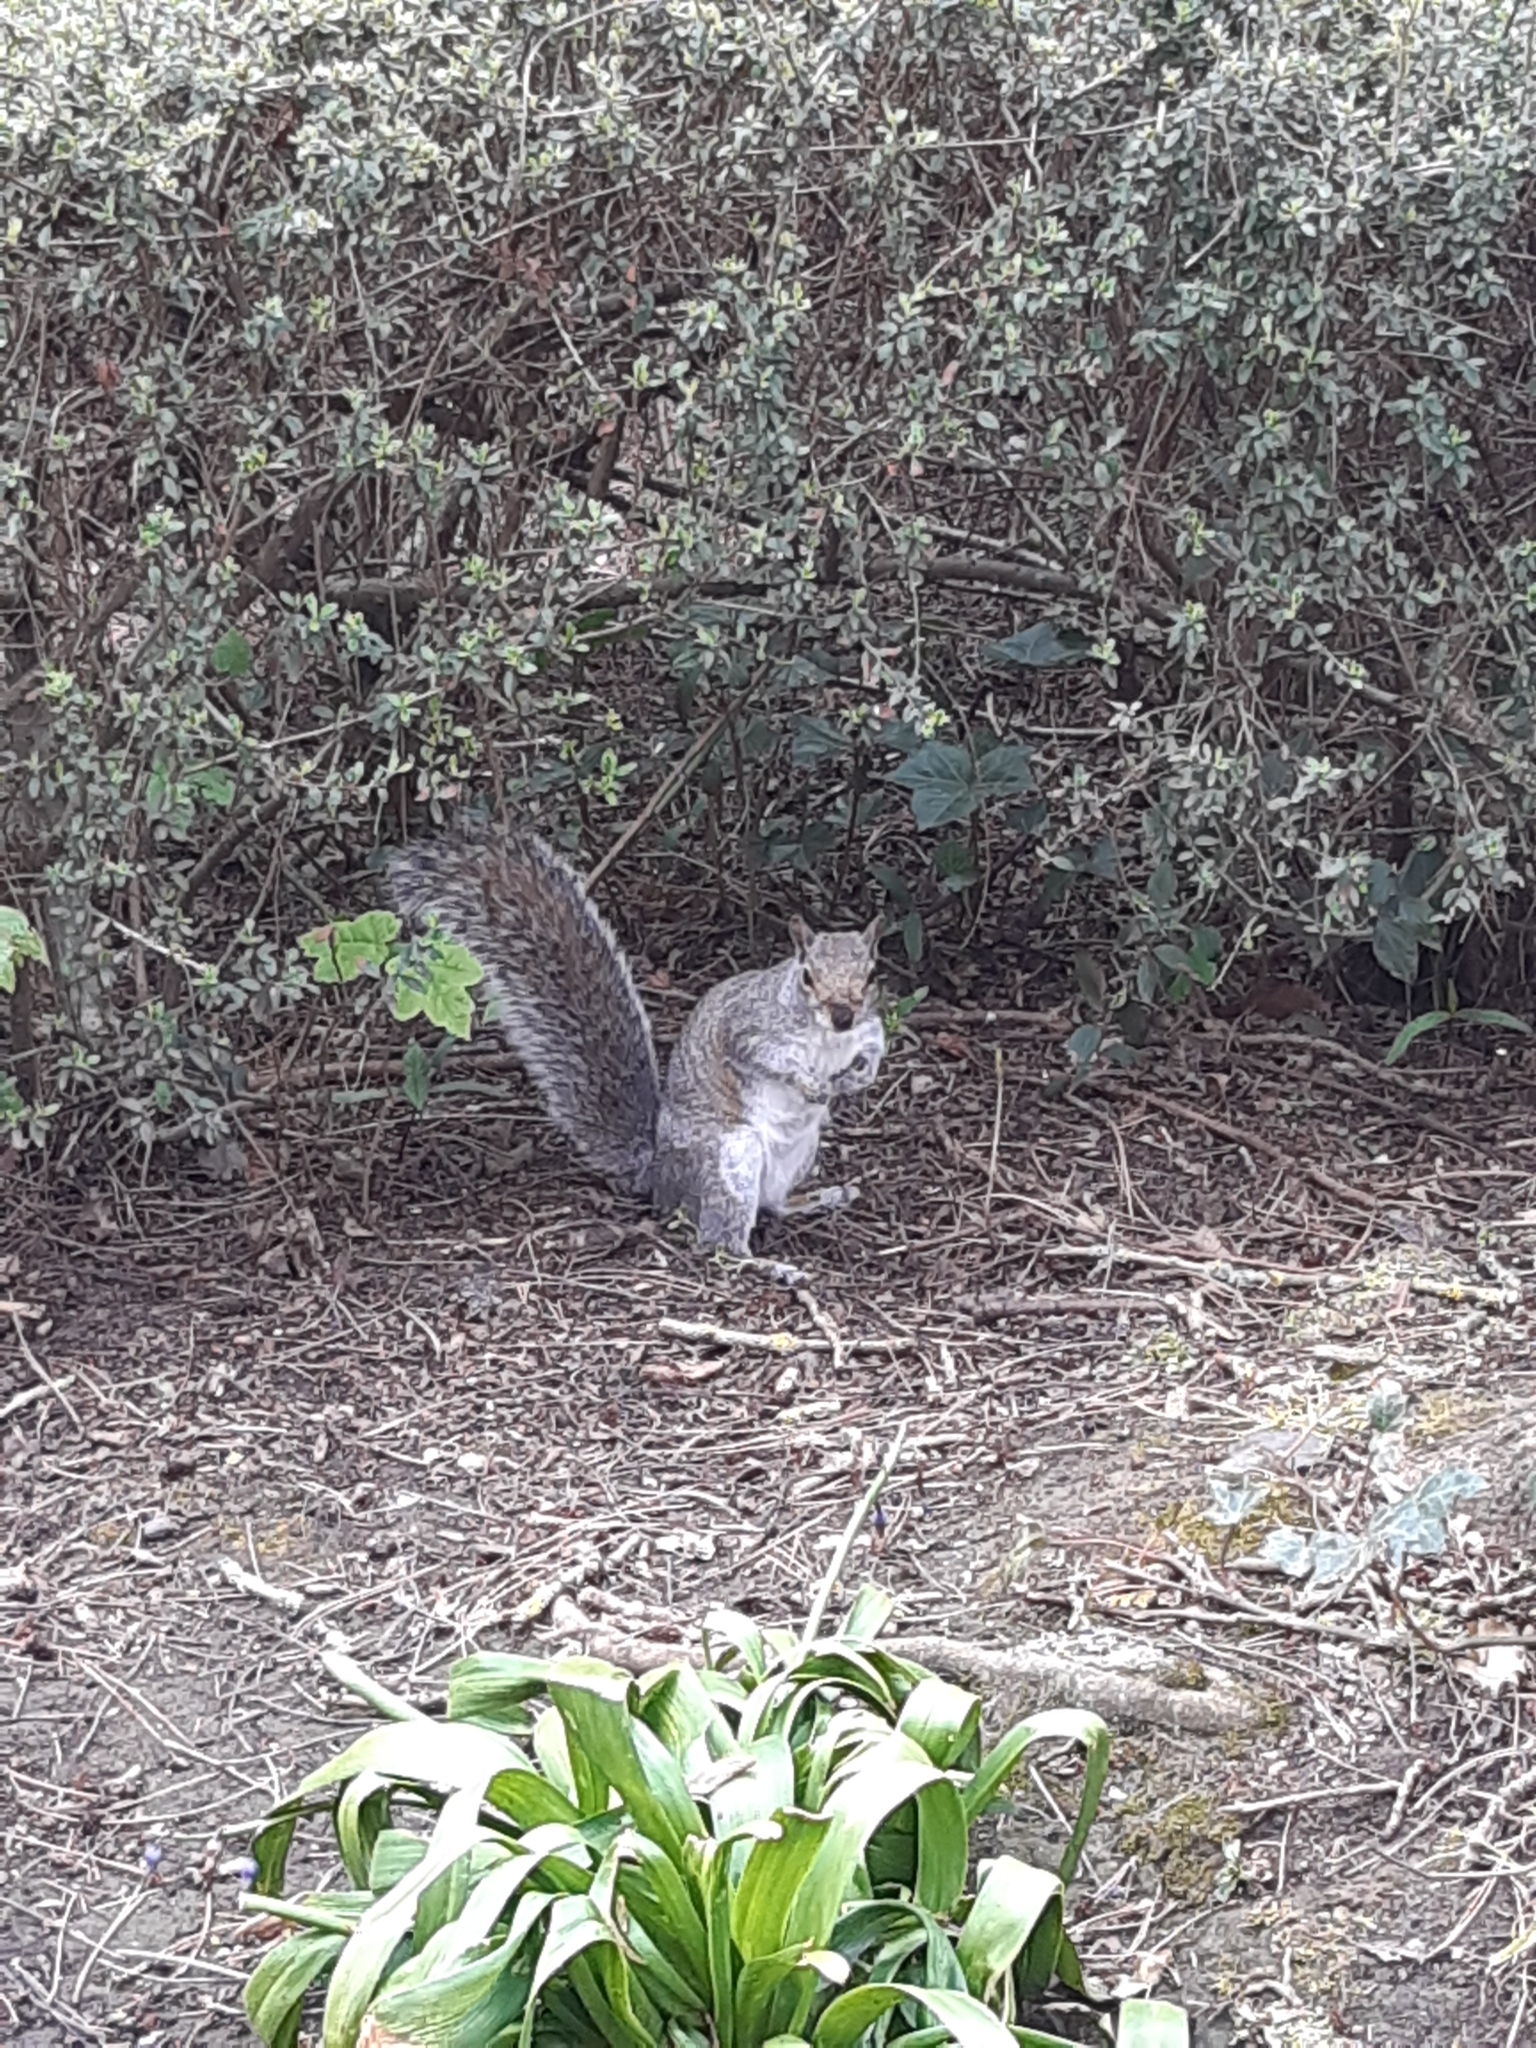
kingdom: Animalia
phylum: Chordata
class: Mammalia
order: Rodentia
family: Sciuridae
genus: Sciurus
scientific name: Sciurus carolinensis
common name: Eastern gray squirrel
